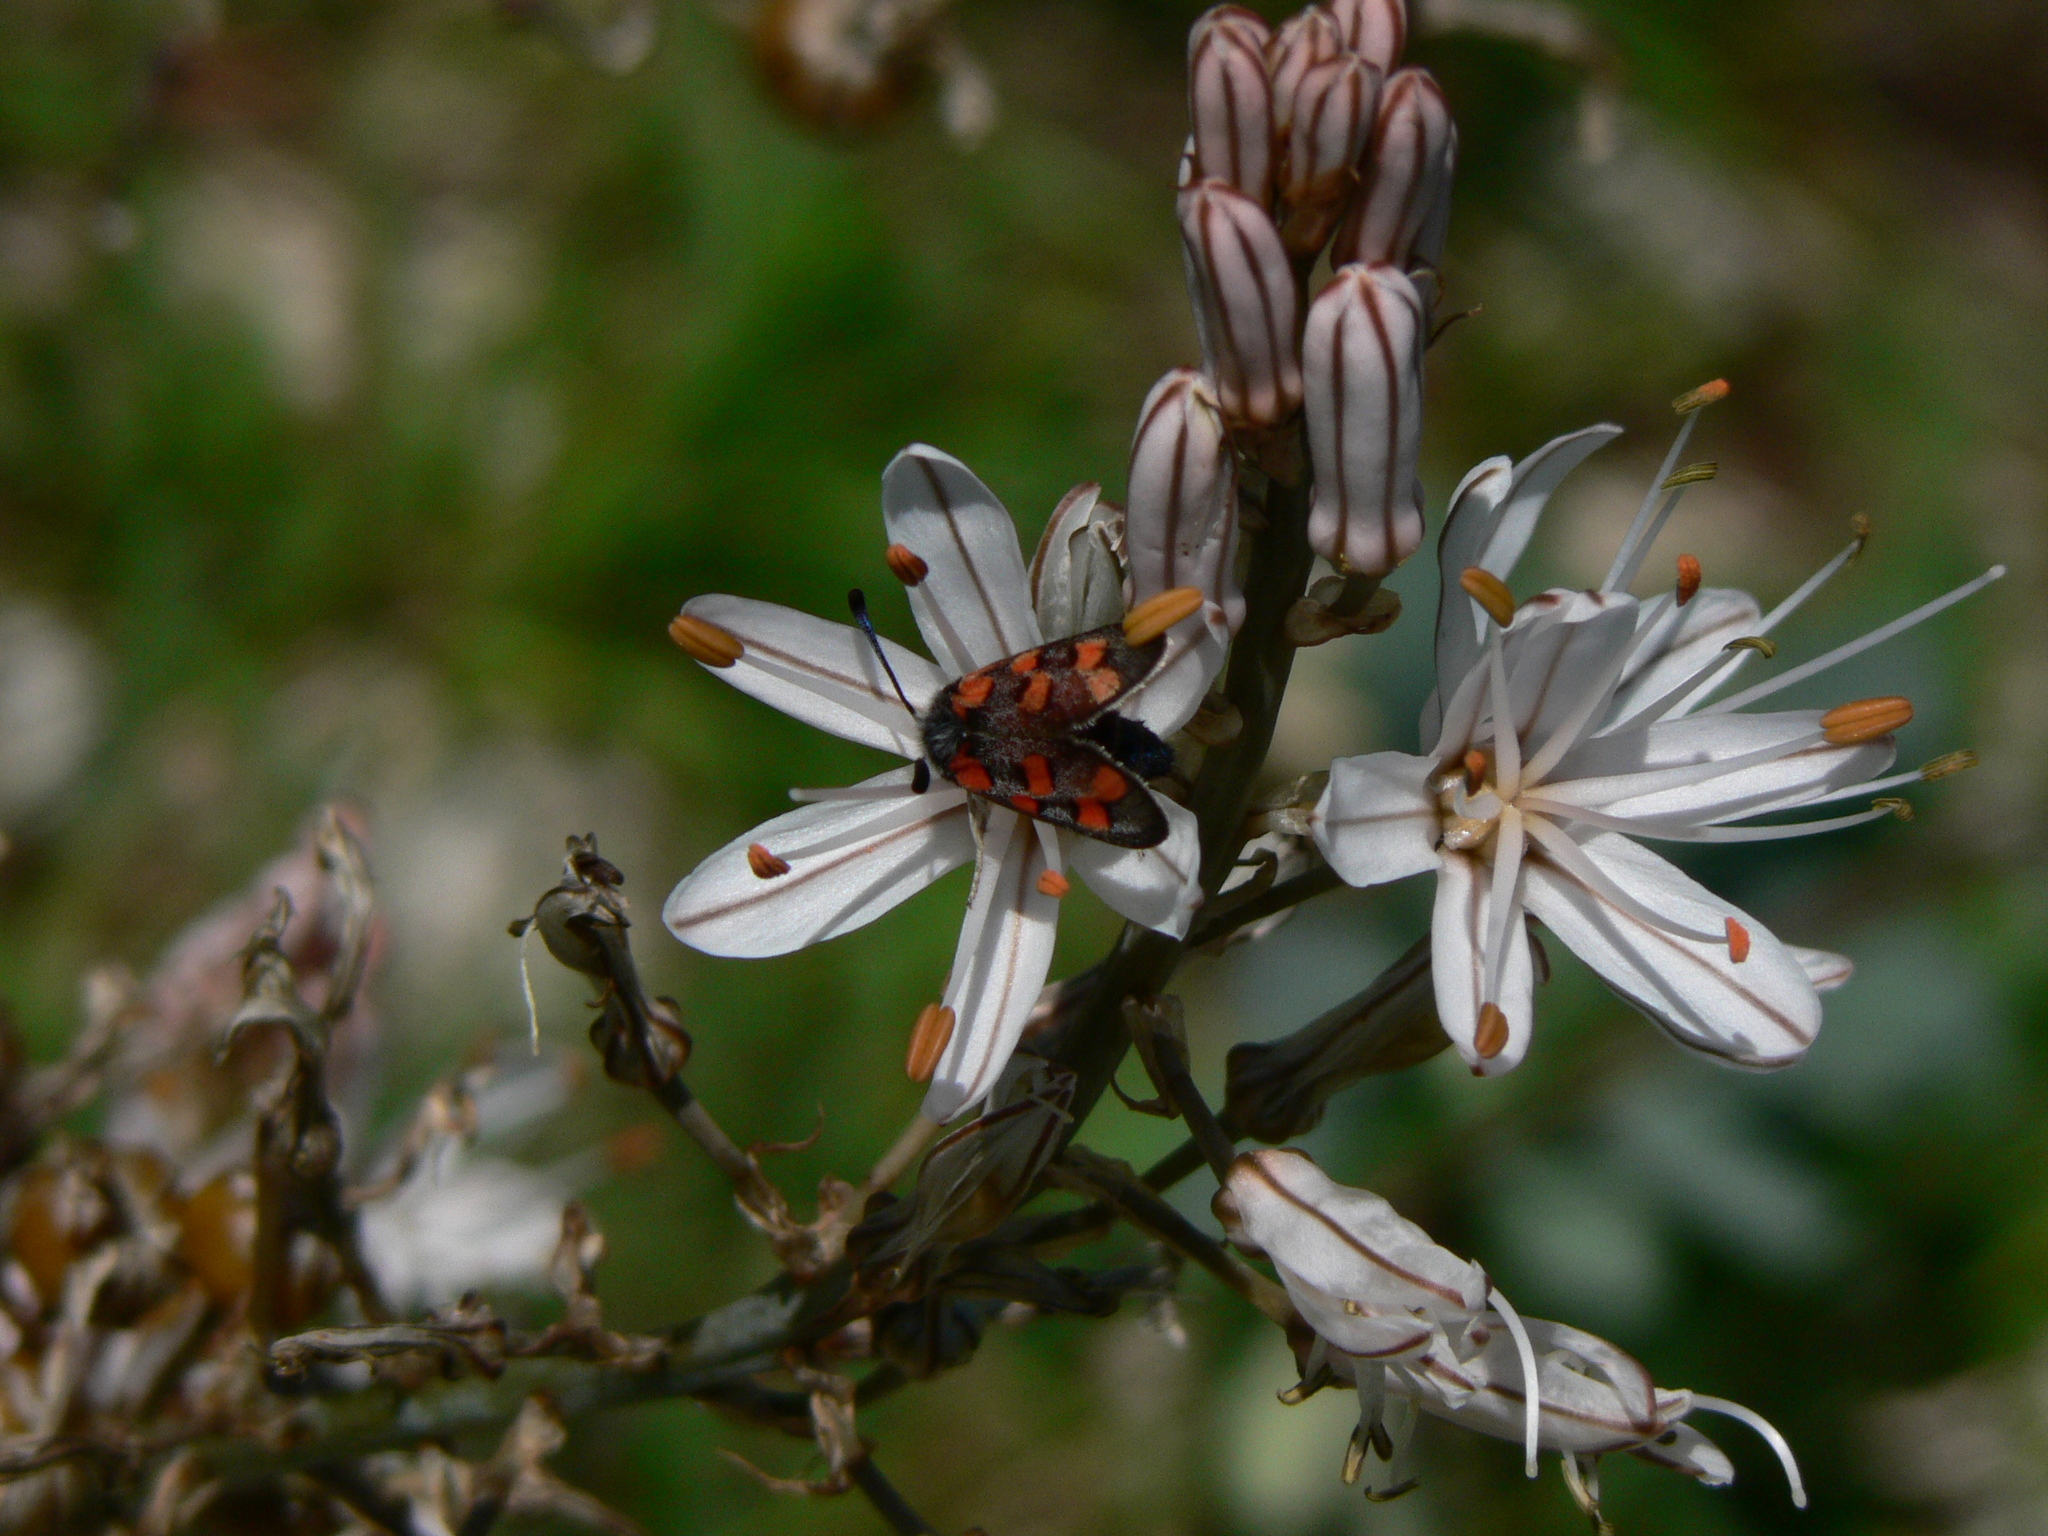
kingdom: Animalia
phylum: Arthropoda
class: Insecta
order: Lepidoptera
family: Zygaenidae
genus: Zygaena
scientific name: Zygaena rhadamanthus
